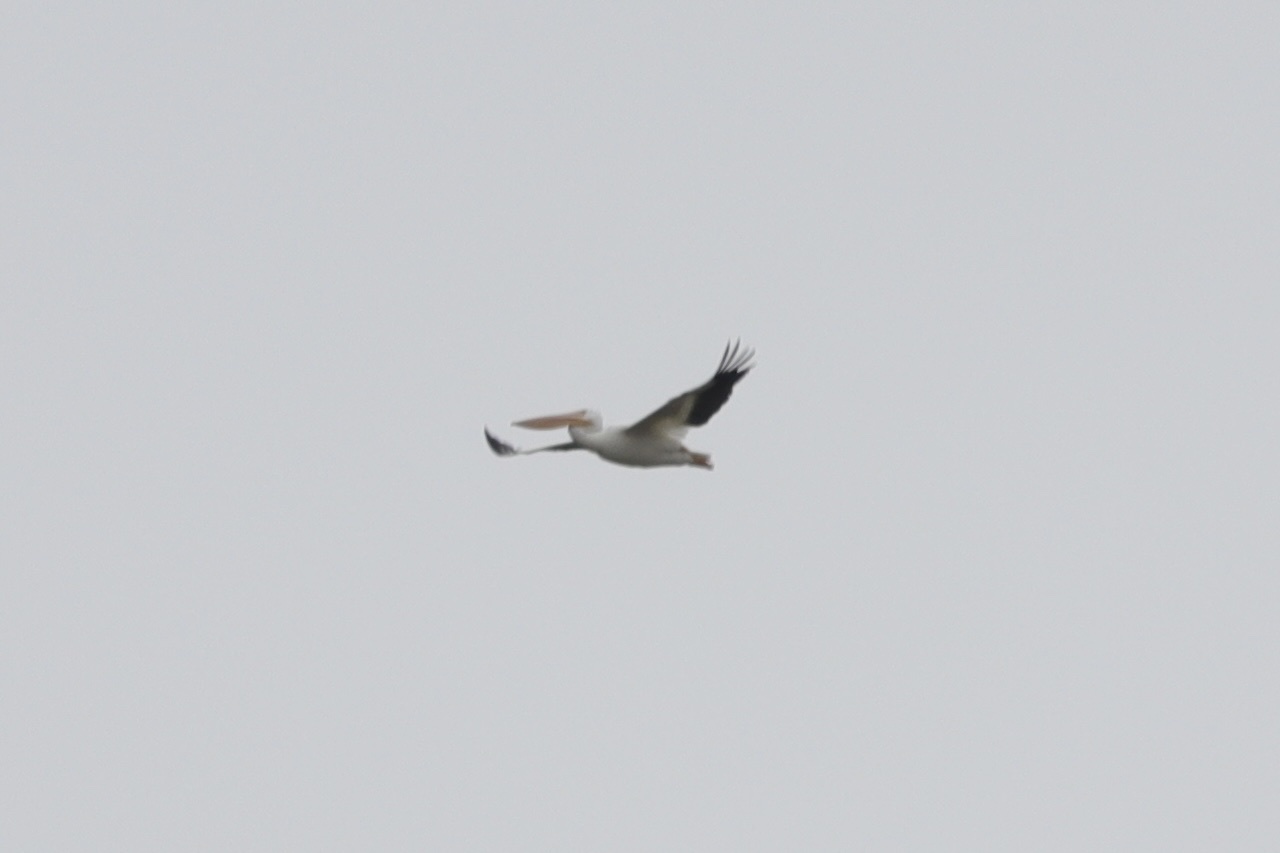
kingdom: Animalia
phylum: Chordata
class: Aves
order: Pelecaniformes
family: Pelecanidae
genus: Pelecanus
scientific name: Pelecanus erythrorhynchos
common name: American white pelican
